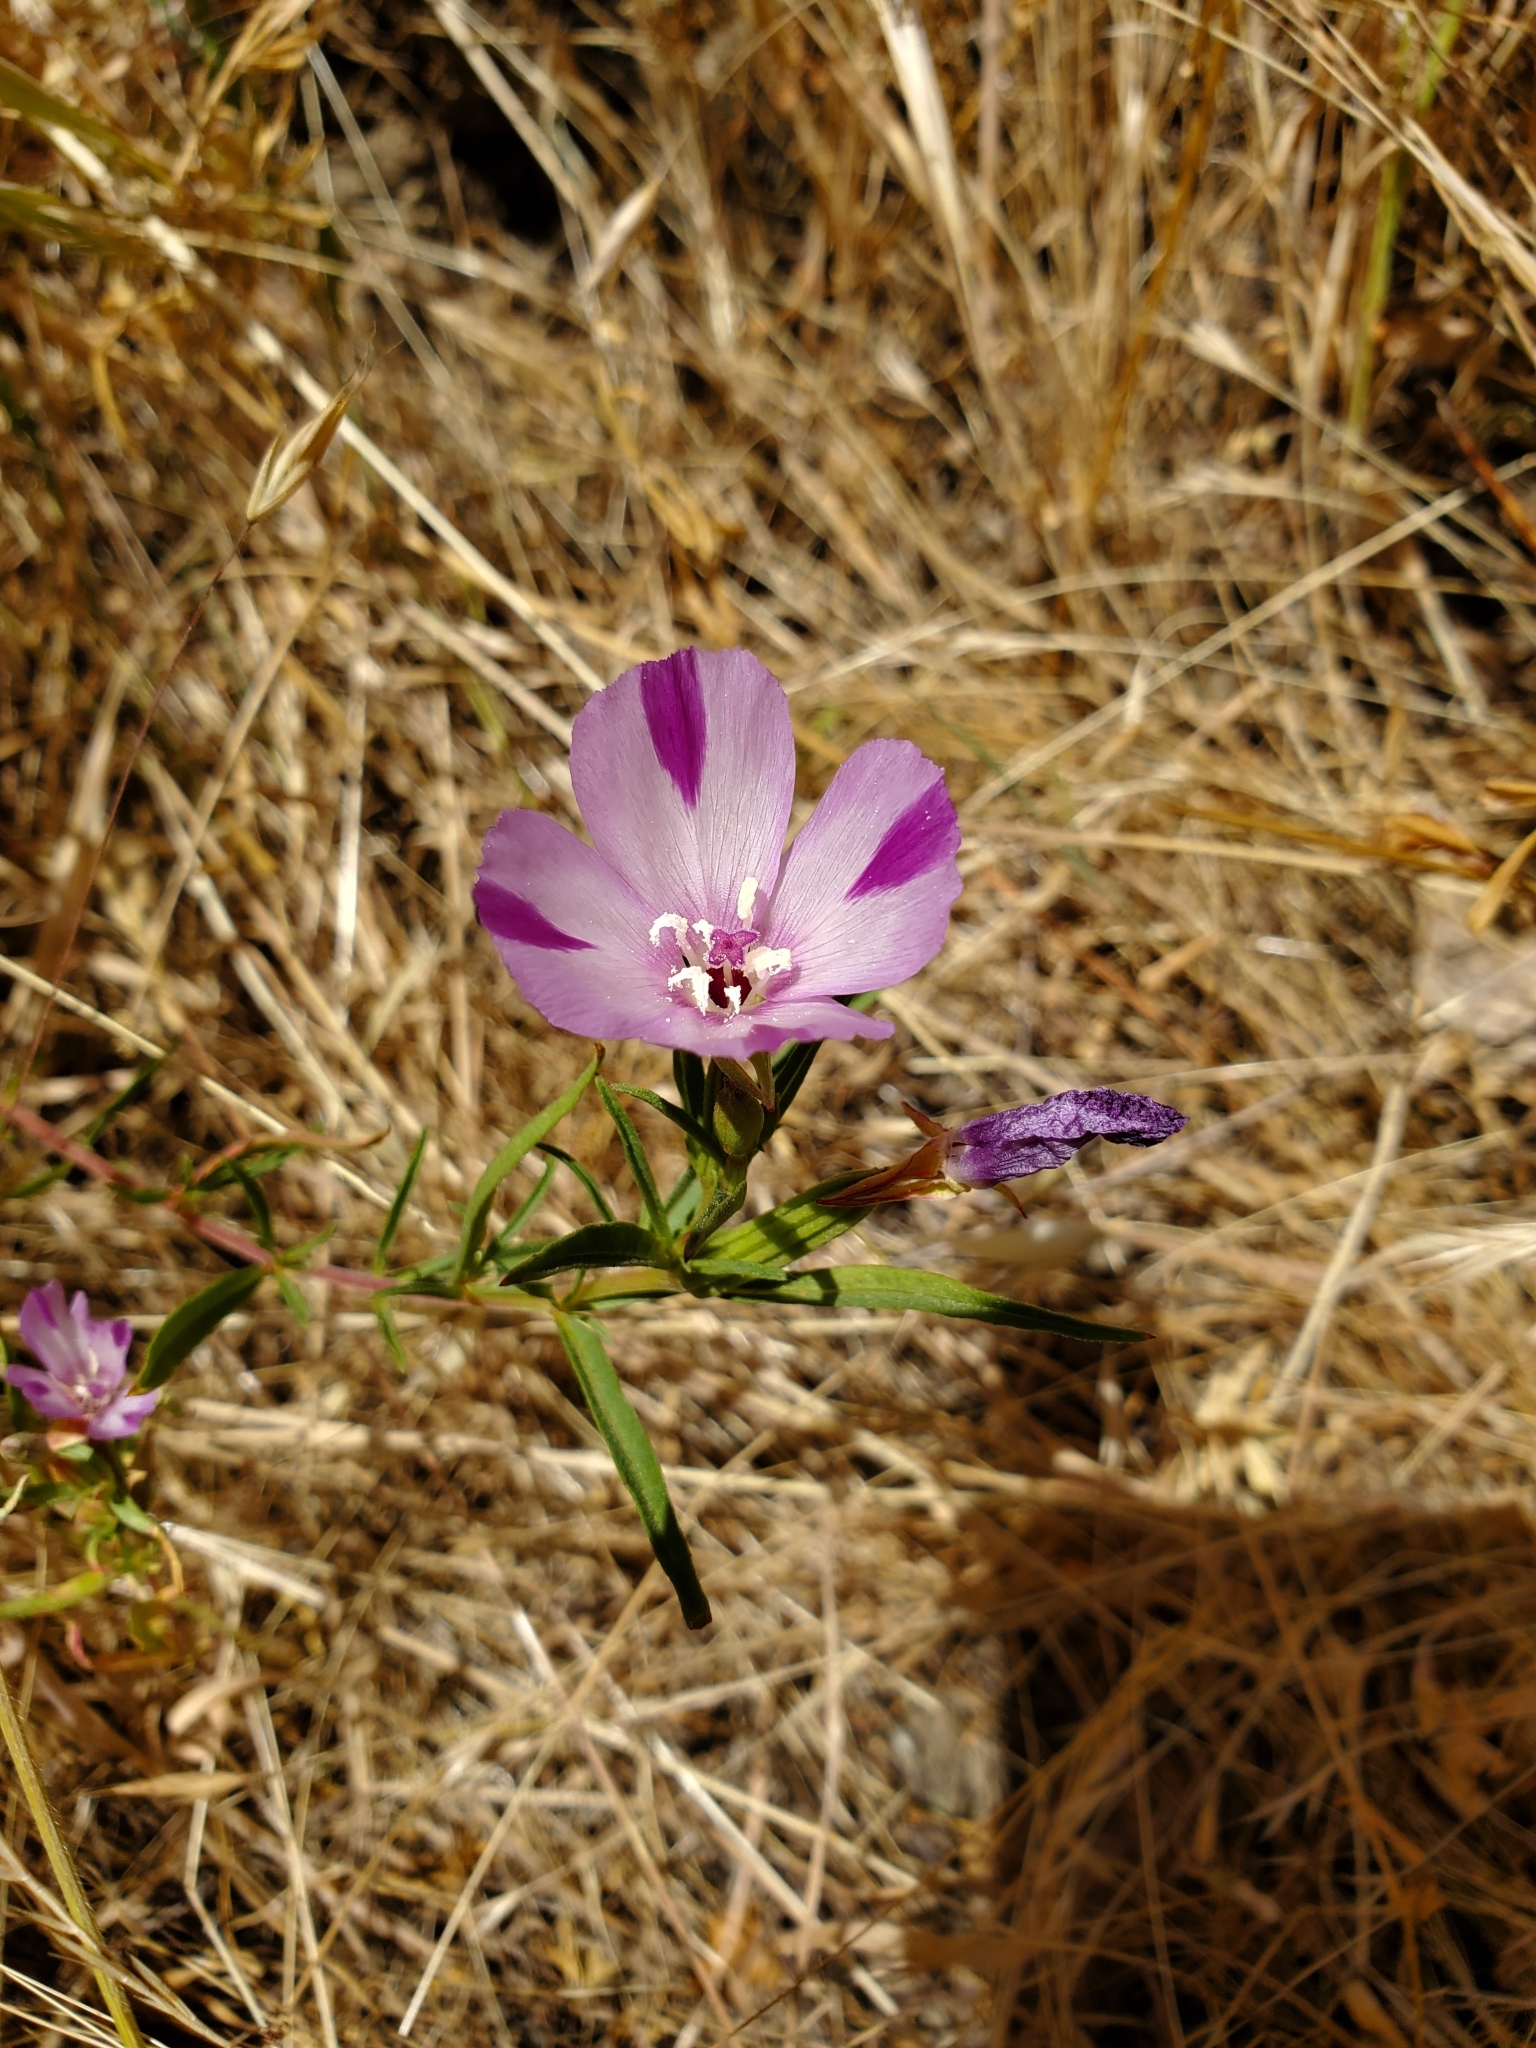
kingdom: Plantae
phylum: Tracheophyta
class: Magnoliopsida
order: Myrtales
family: Onagraceae
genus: Clarkia
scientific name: Clarkia purpurea
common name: Purple clarkia
